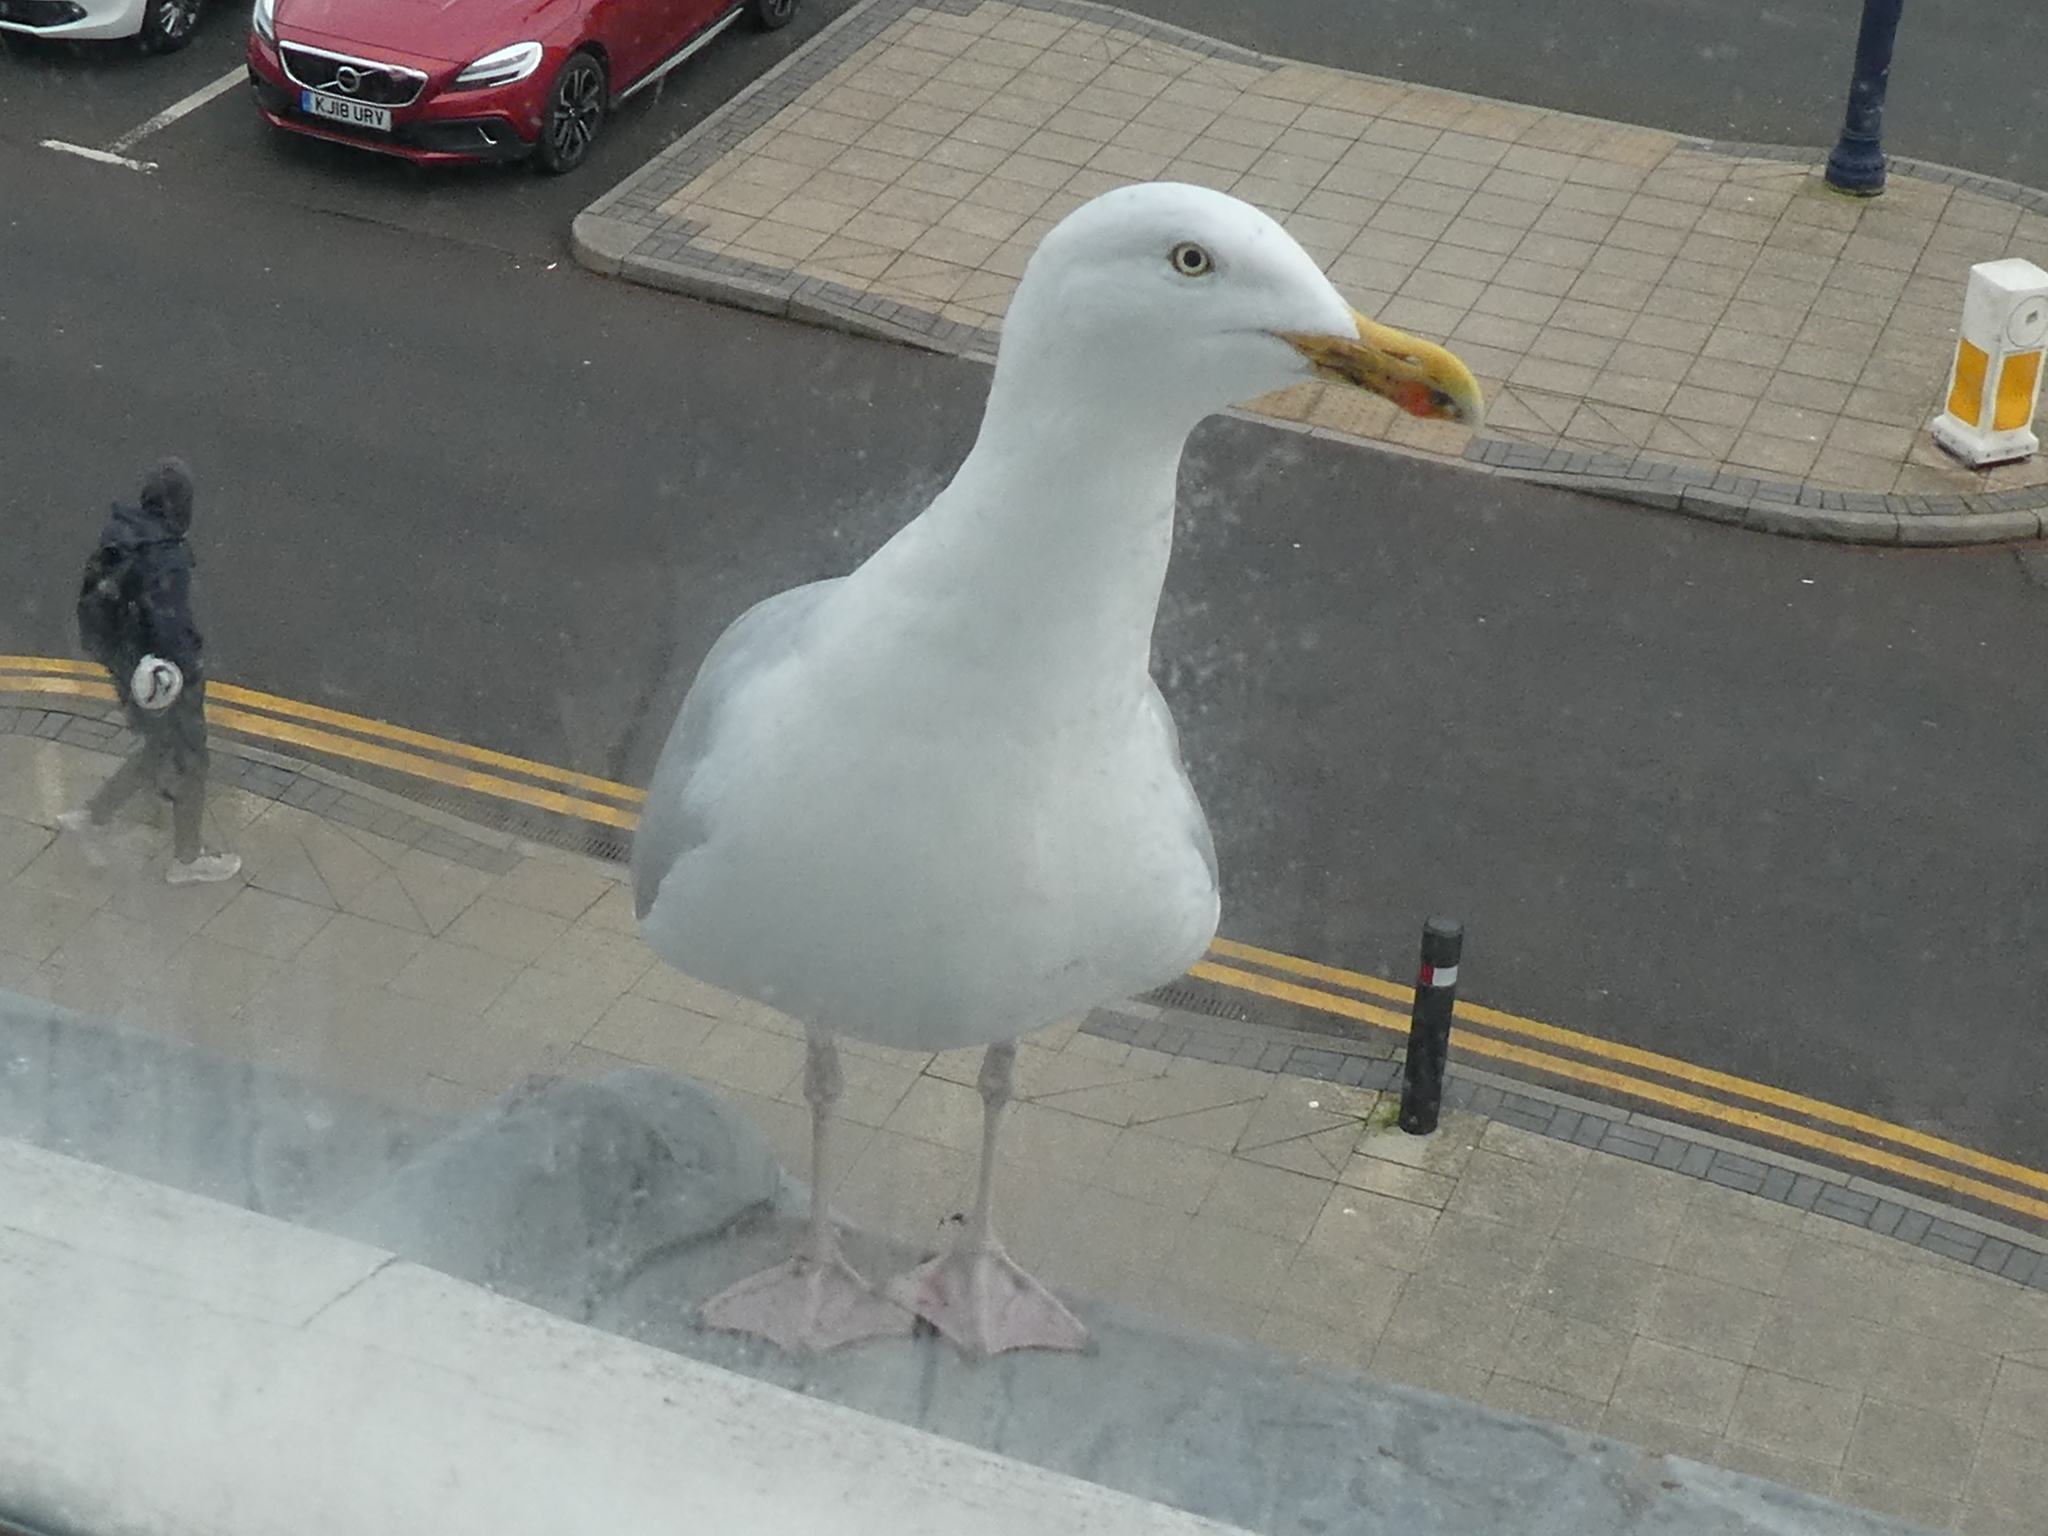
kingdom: Animalia
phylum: Chordata
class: Aves
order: Charadriiformes
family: Laridae
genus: Larus
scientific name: Larus argentatus
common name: Herring gull
